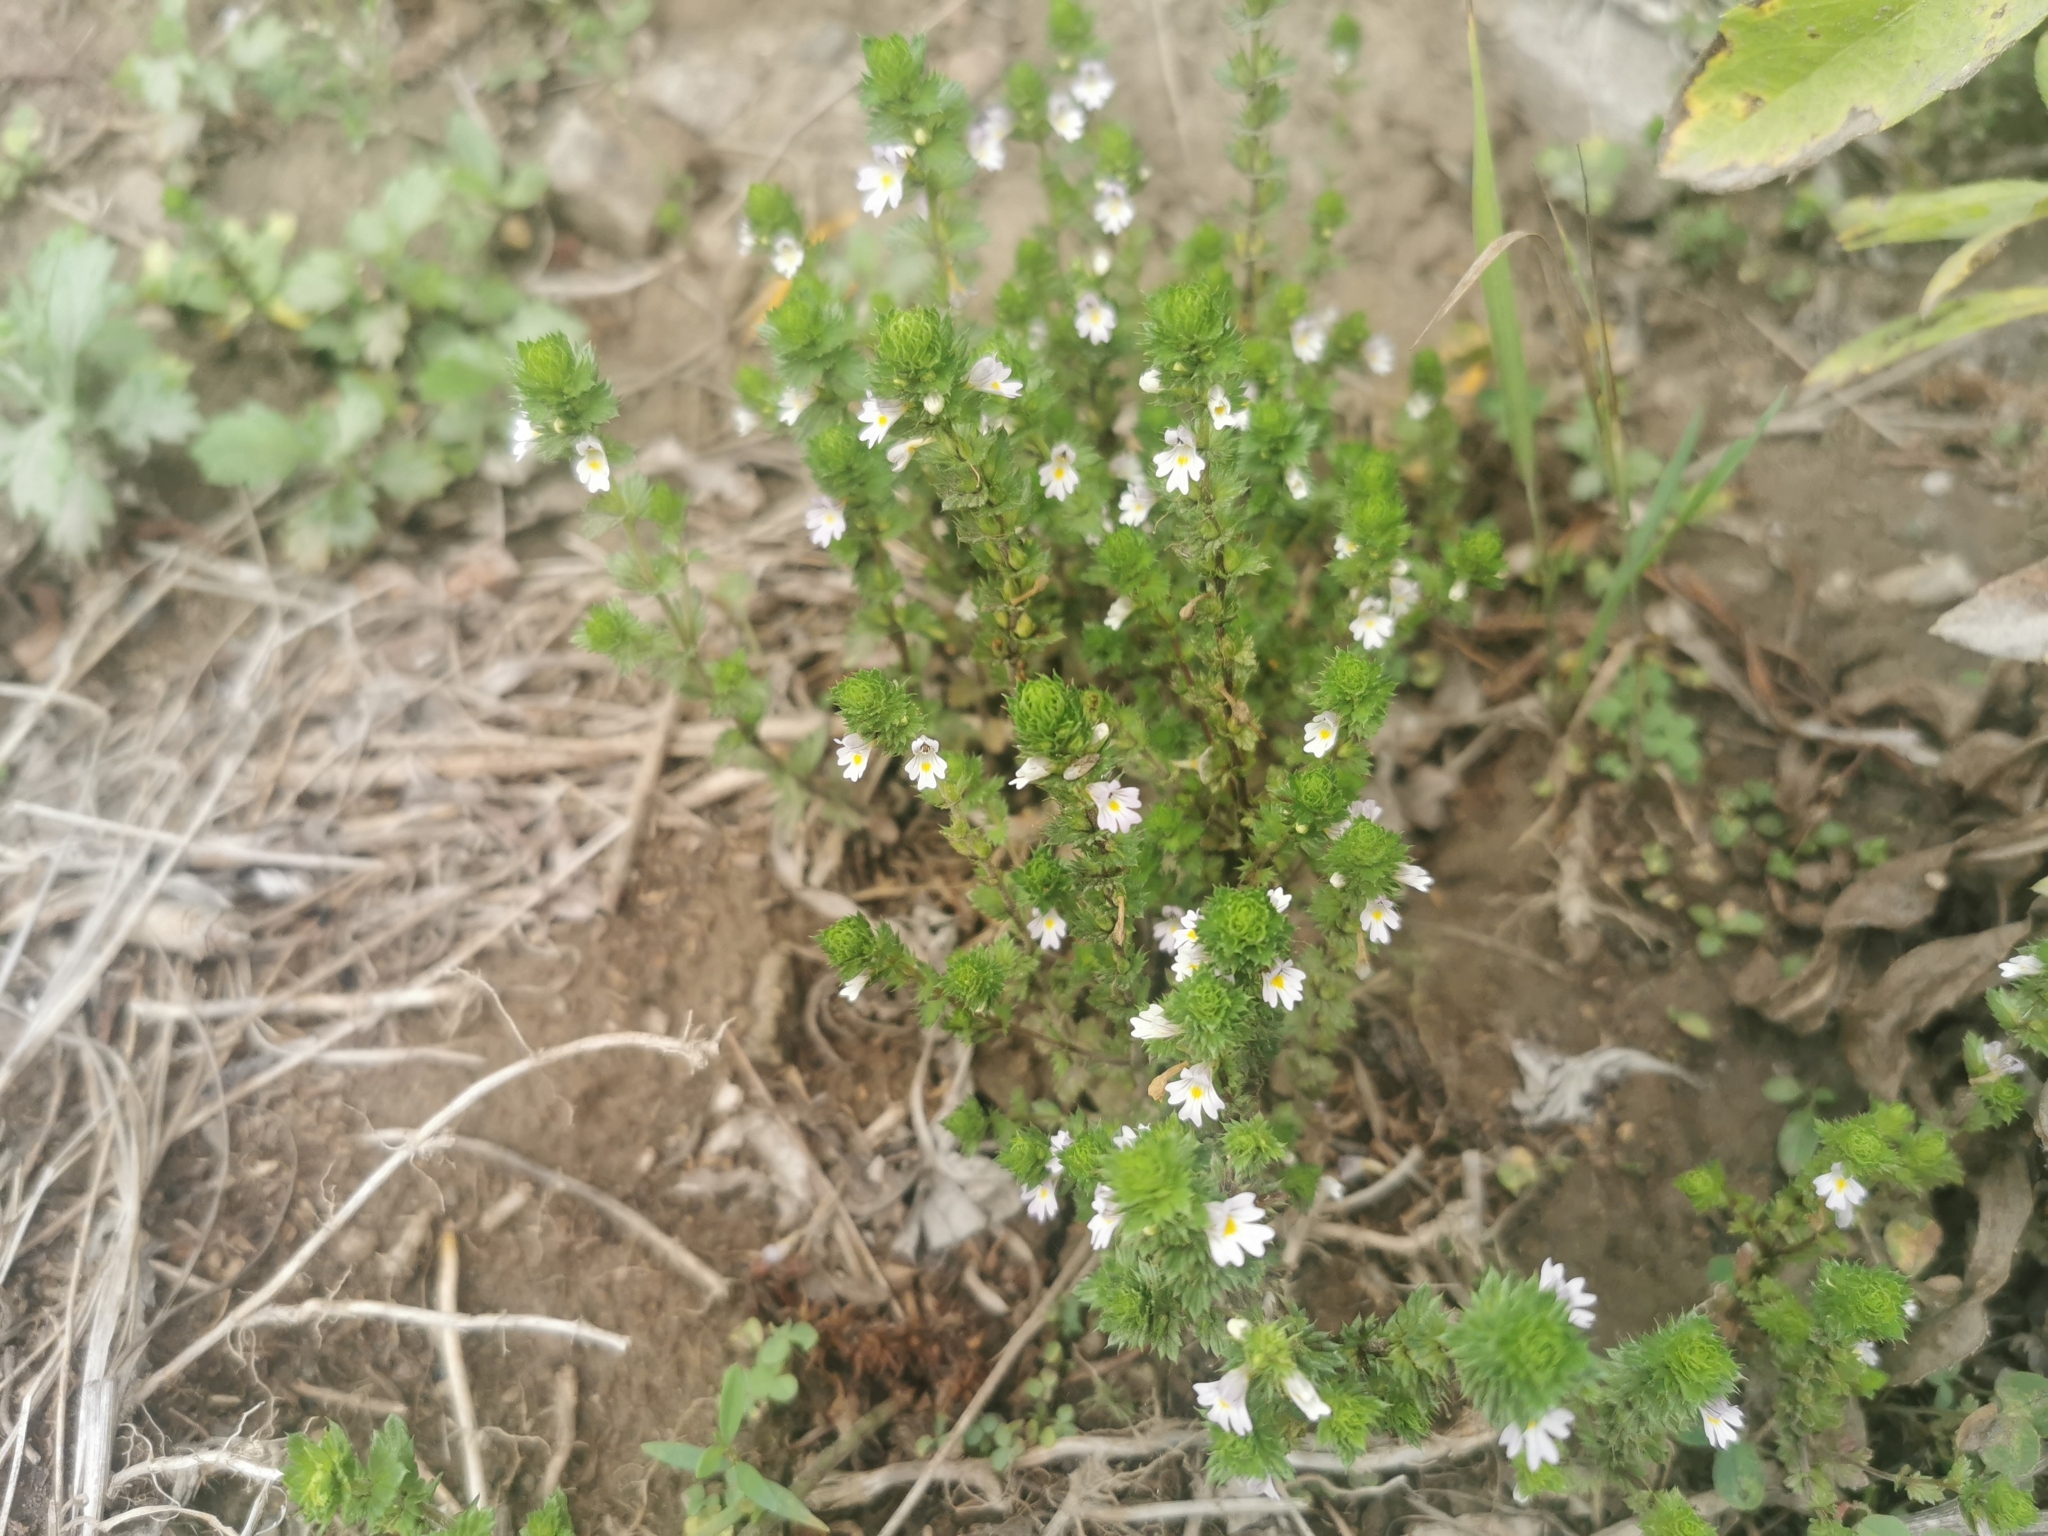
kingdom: Plantae
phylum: Tracheophyta
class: Magnoliopsida
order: Lamiales
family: Orobanchaceae
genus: Euphrasia
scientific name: Euphrasia maximowiczii
